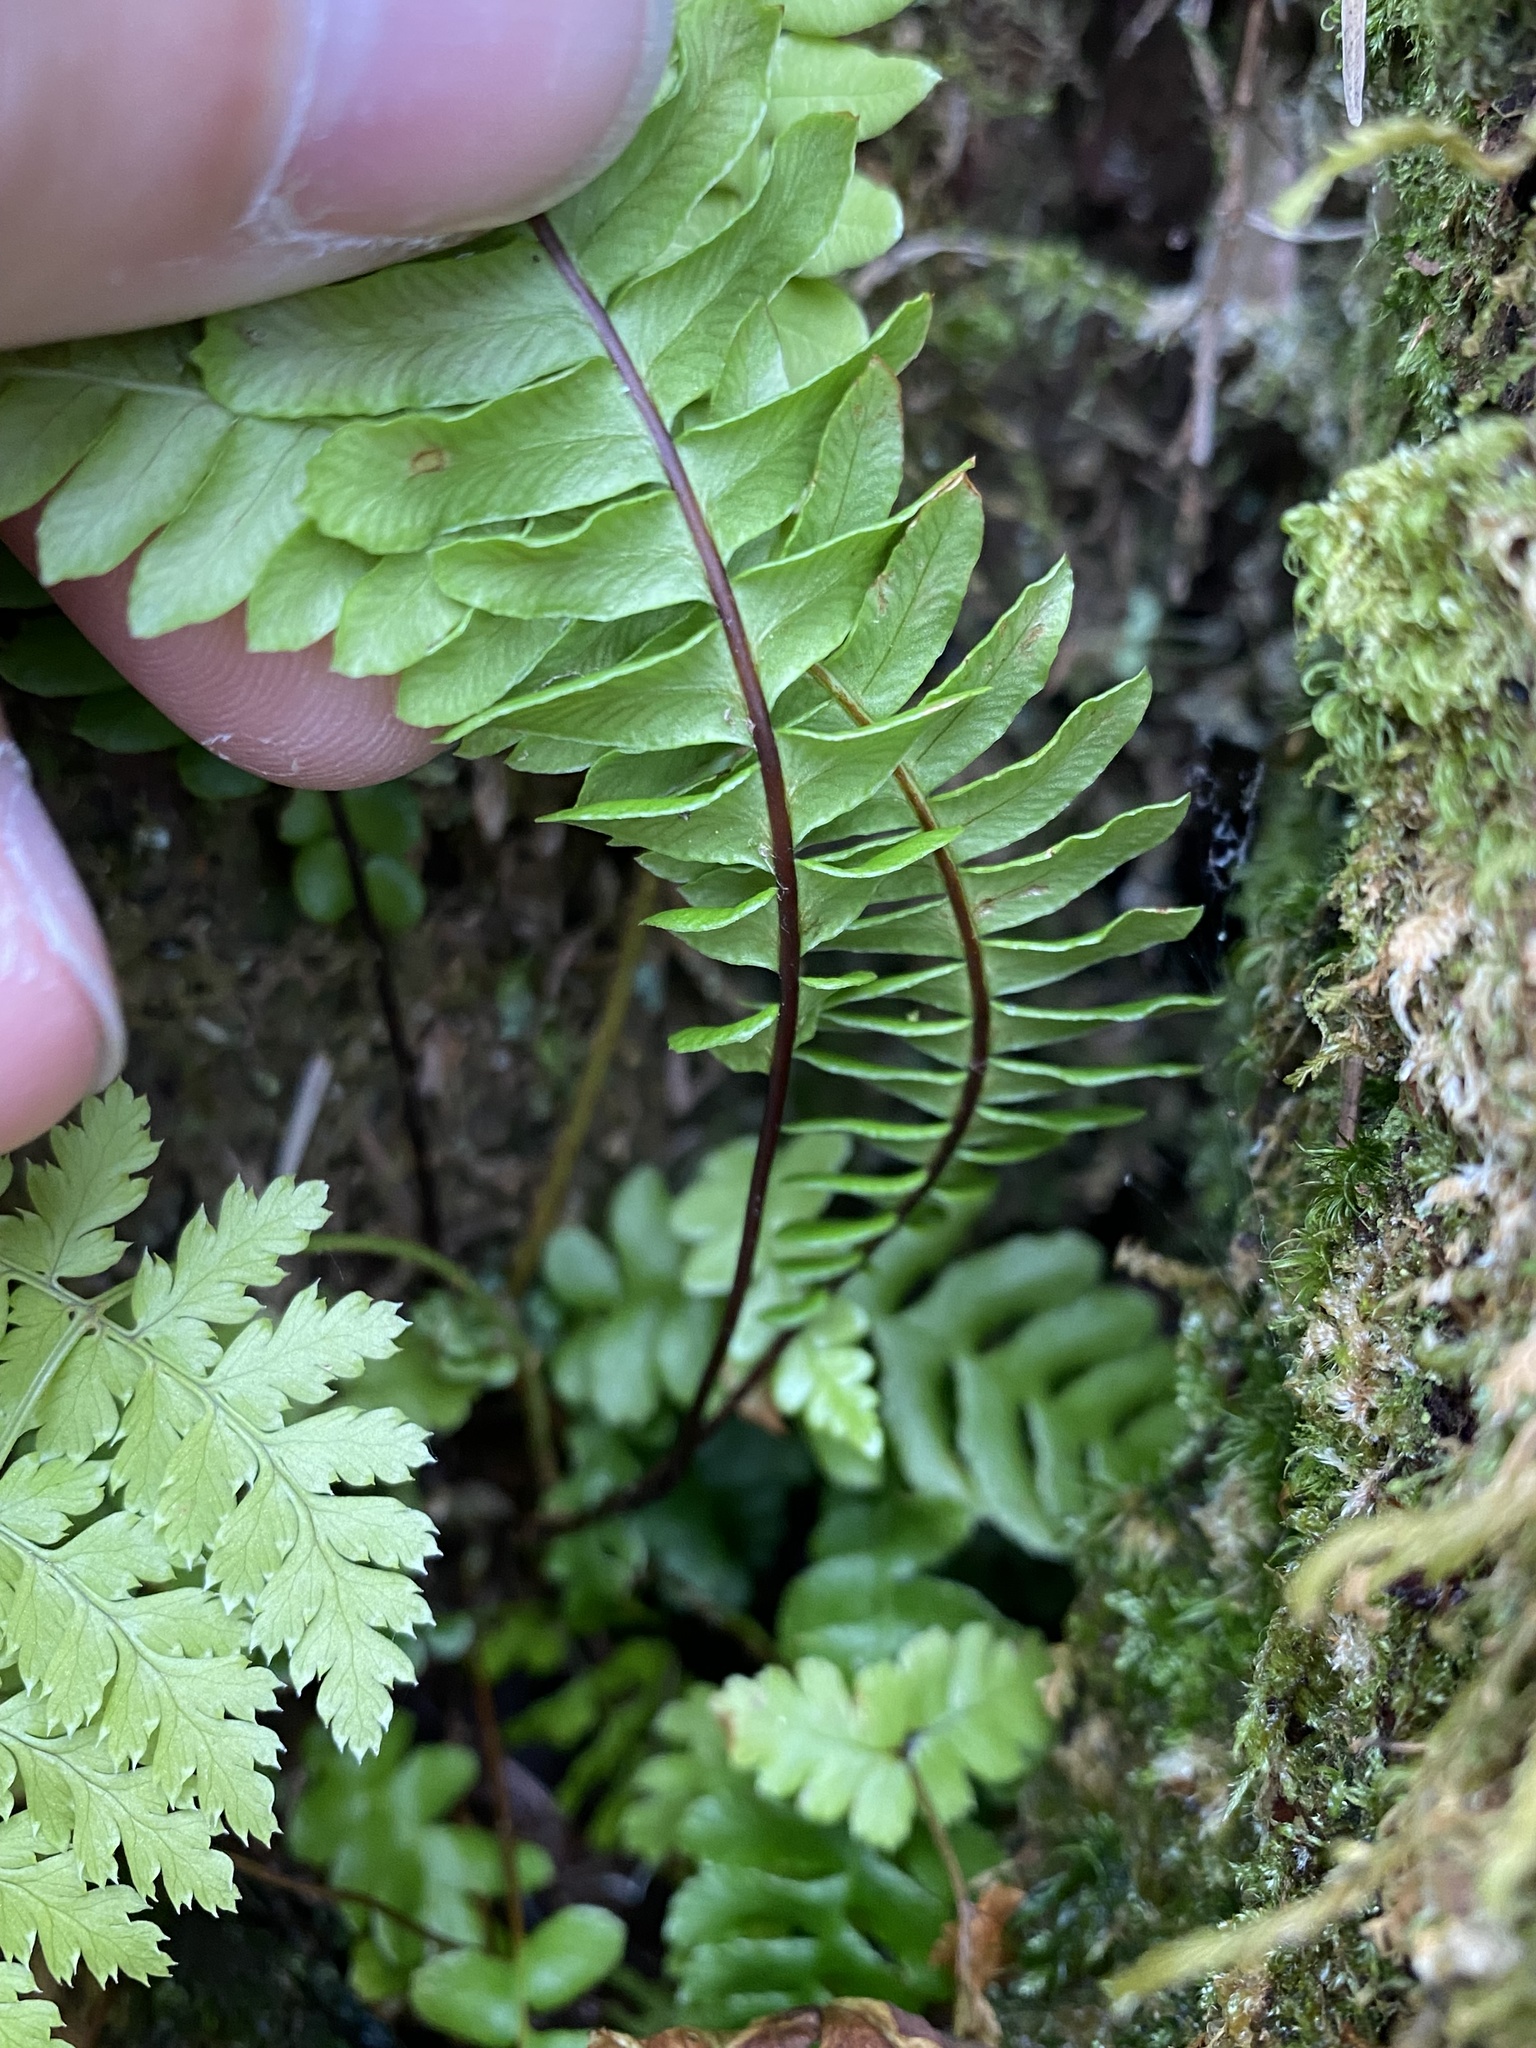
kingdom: Plantae
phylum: Tracheophyta
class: Polypodiopsida
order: Polypodiales
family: Blechnaceae
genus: Struthiopteris
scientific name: Struthiopteris spicant
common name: Deer fern
